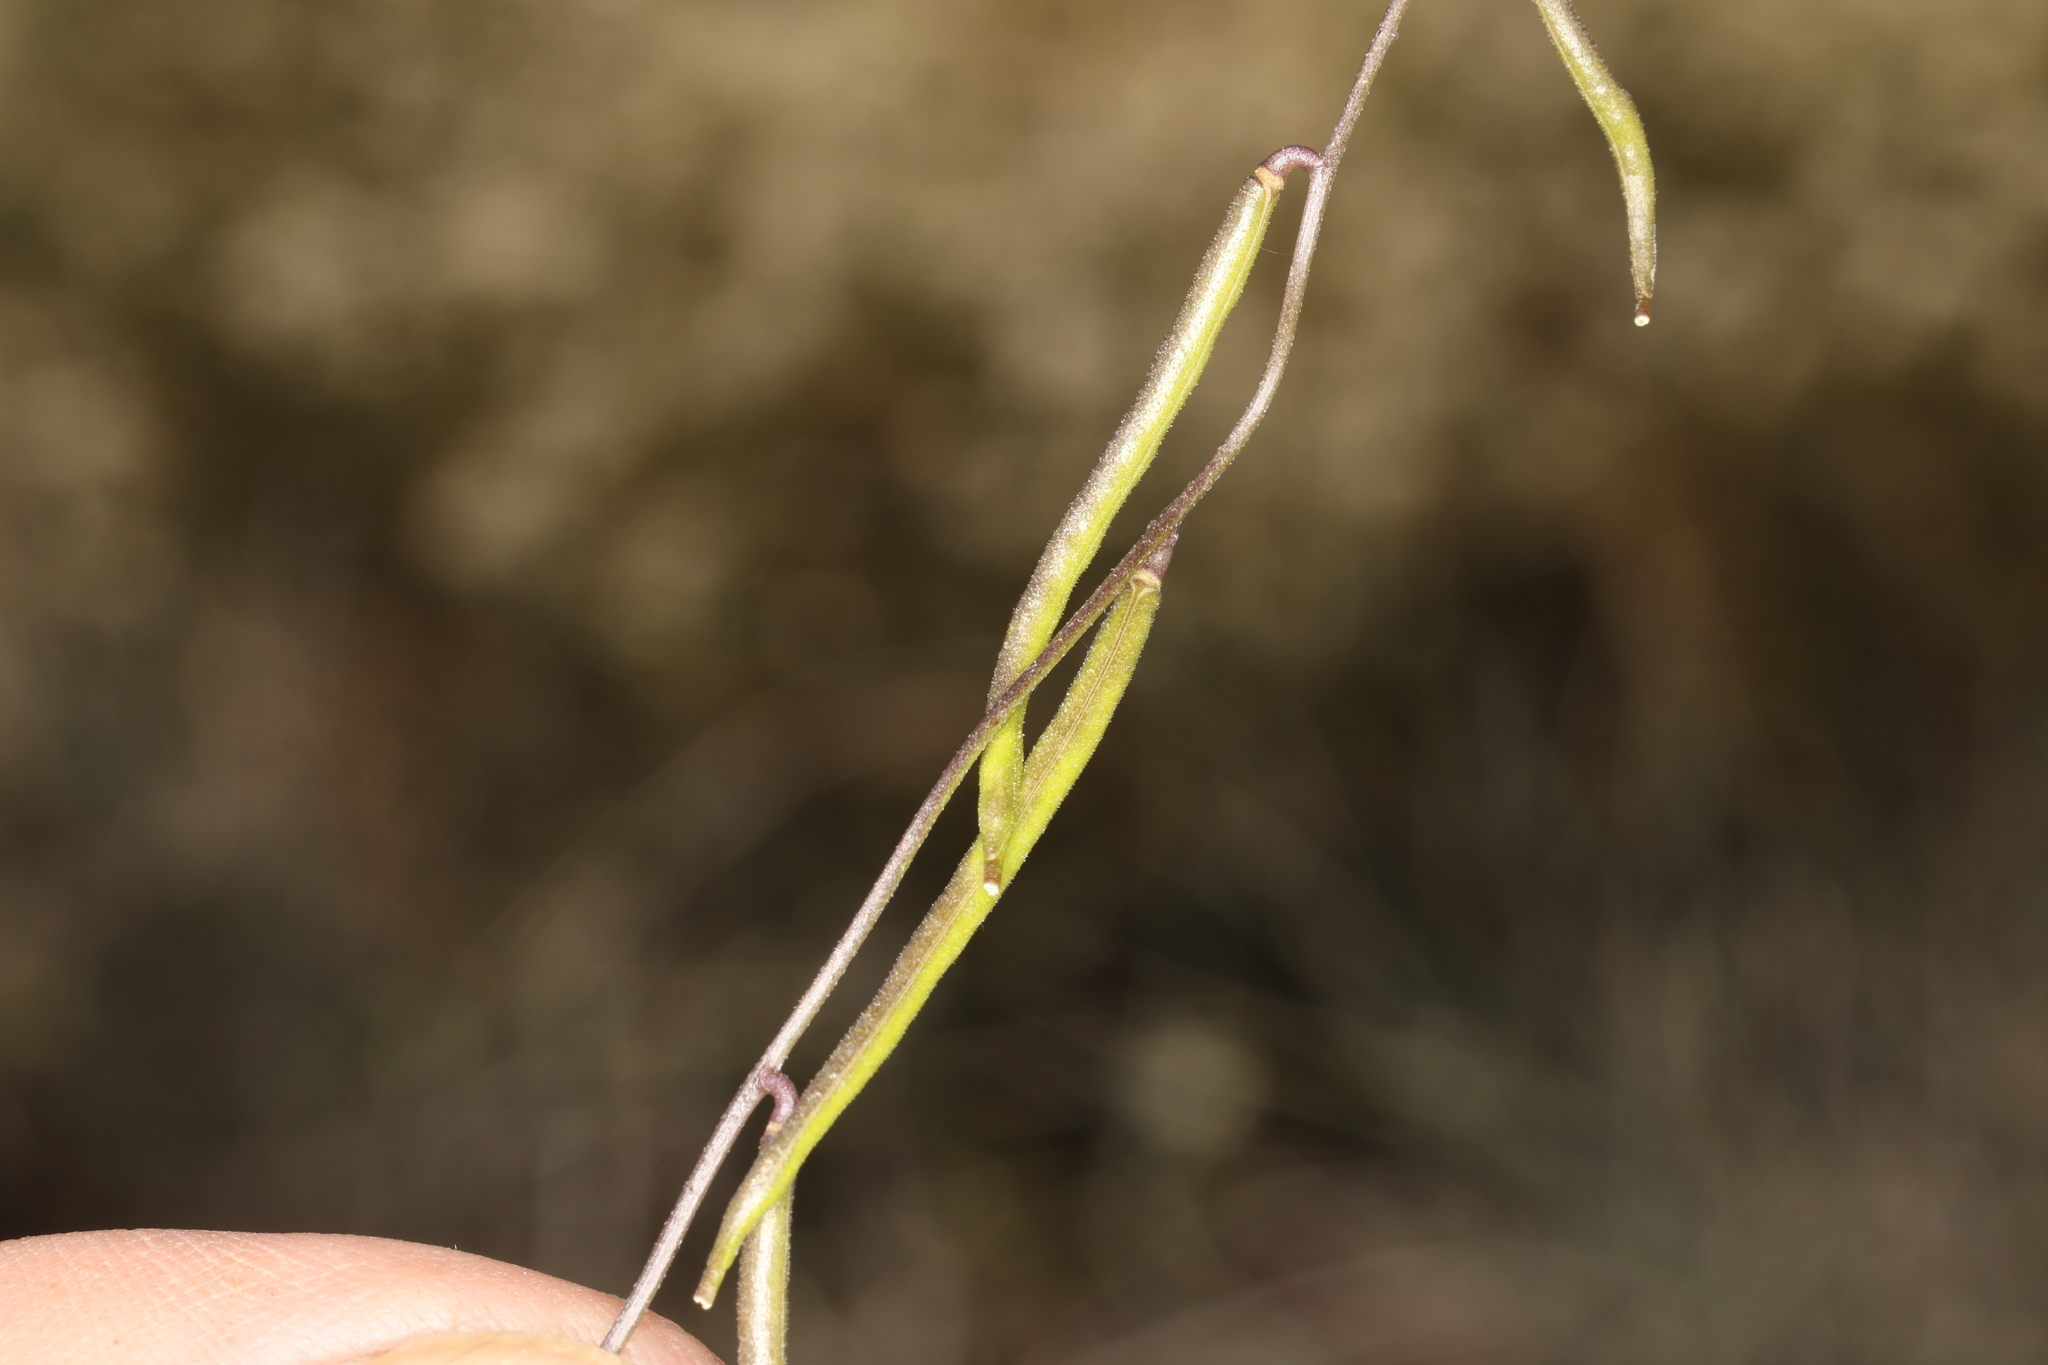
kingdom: Plantae
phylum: Tracheophyta
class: Magnoliopsida
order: Brassicales
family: Brassicaceae
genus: Streptanthus
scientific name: Streptanthus cooperi
